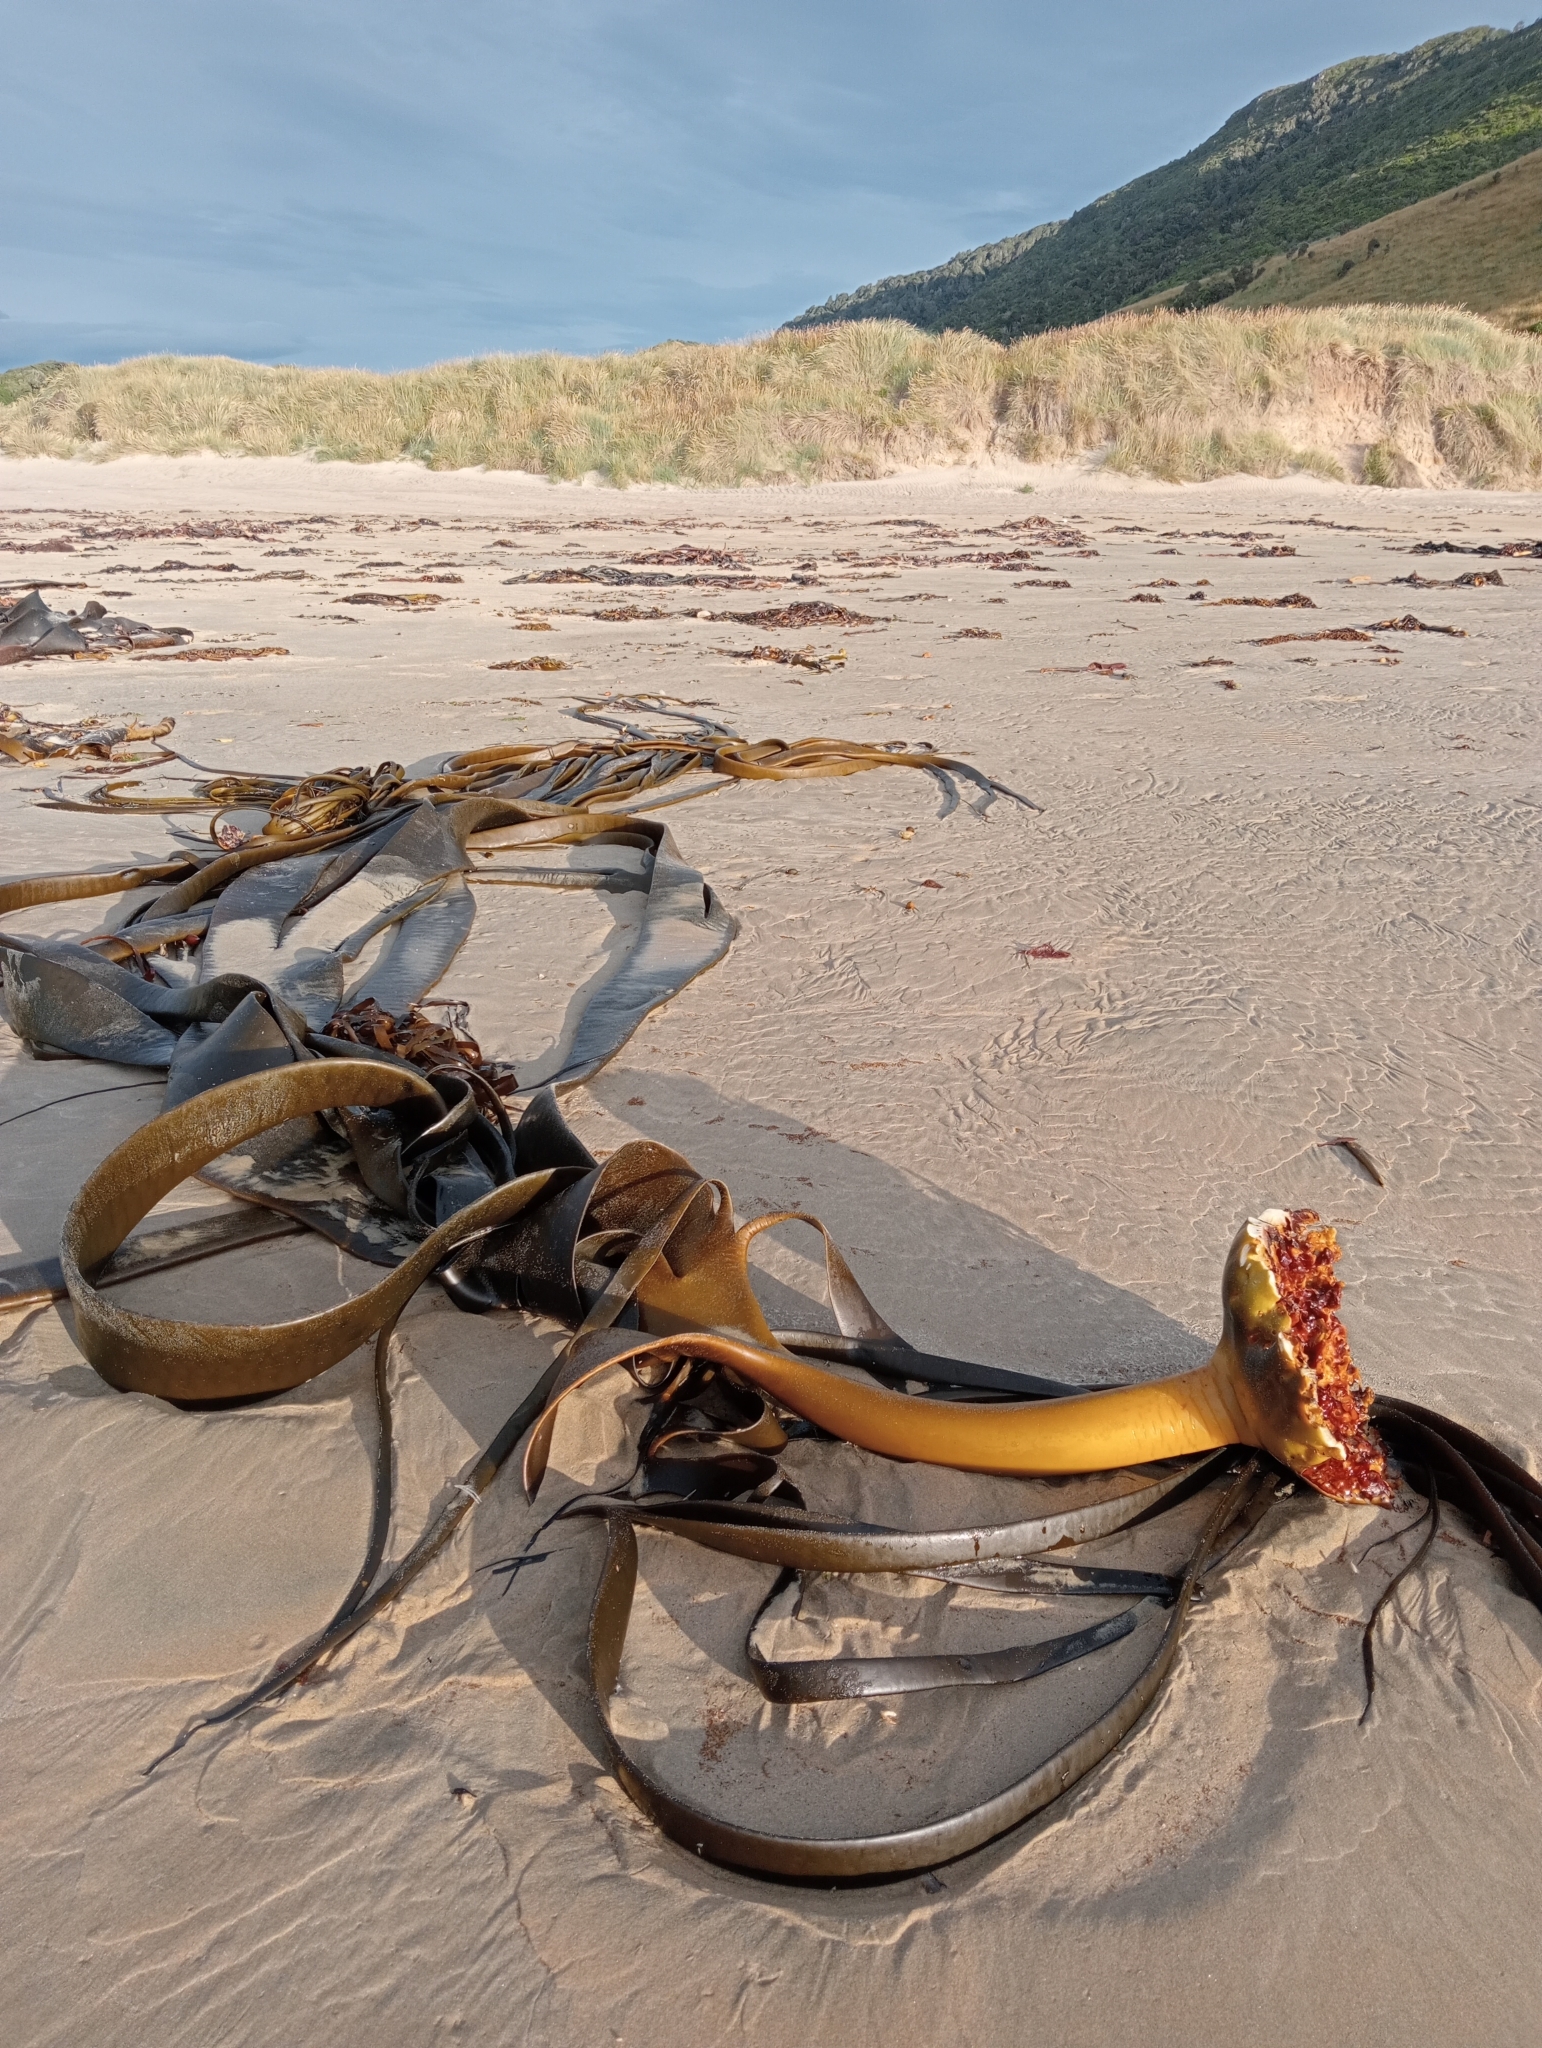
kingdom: Chromista
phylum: Ochrophyta
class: Phaeophyceae
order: Fucales
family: Durvillaeaceae
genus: Durvillaea
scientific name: Durvillaea antarctica
